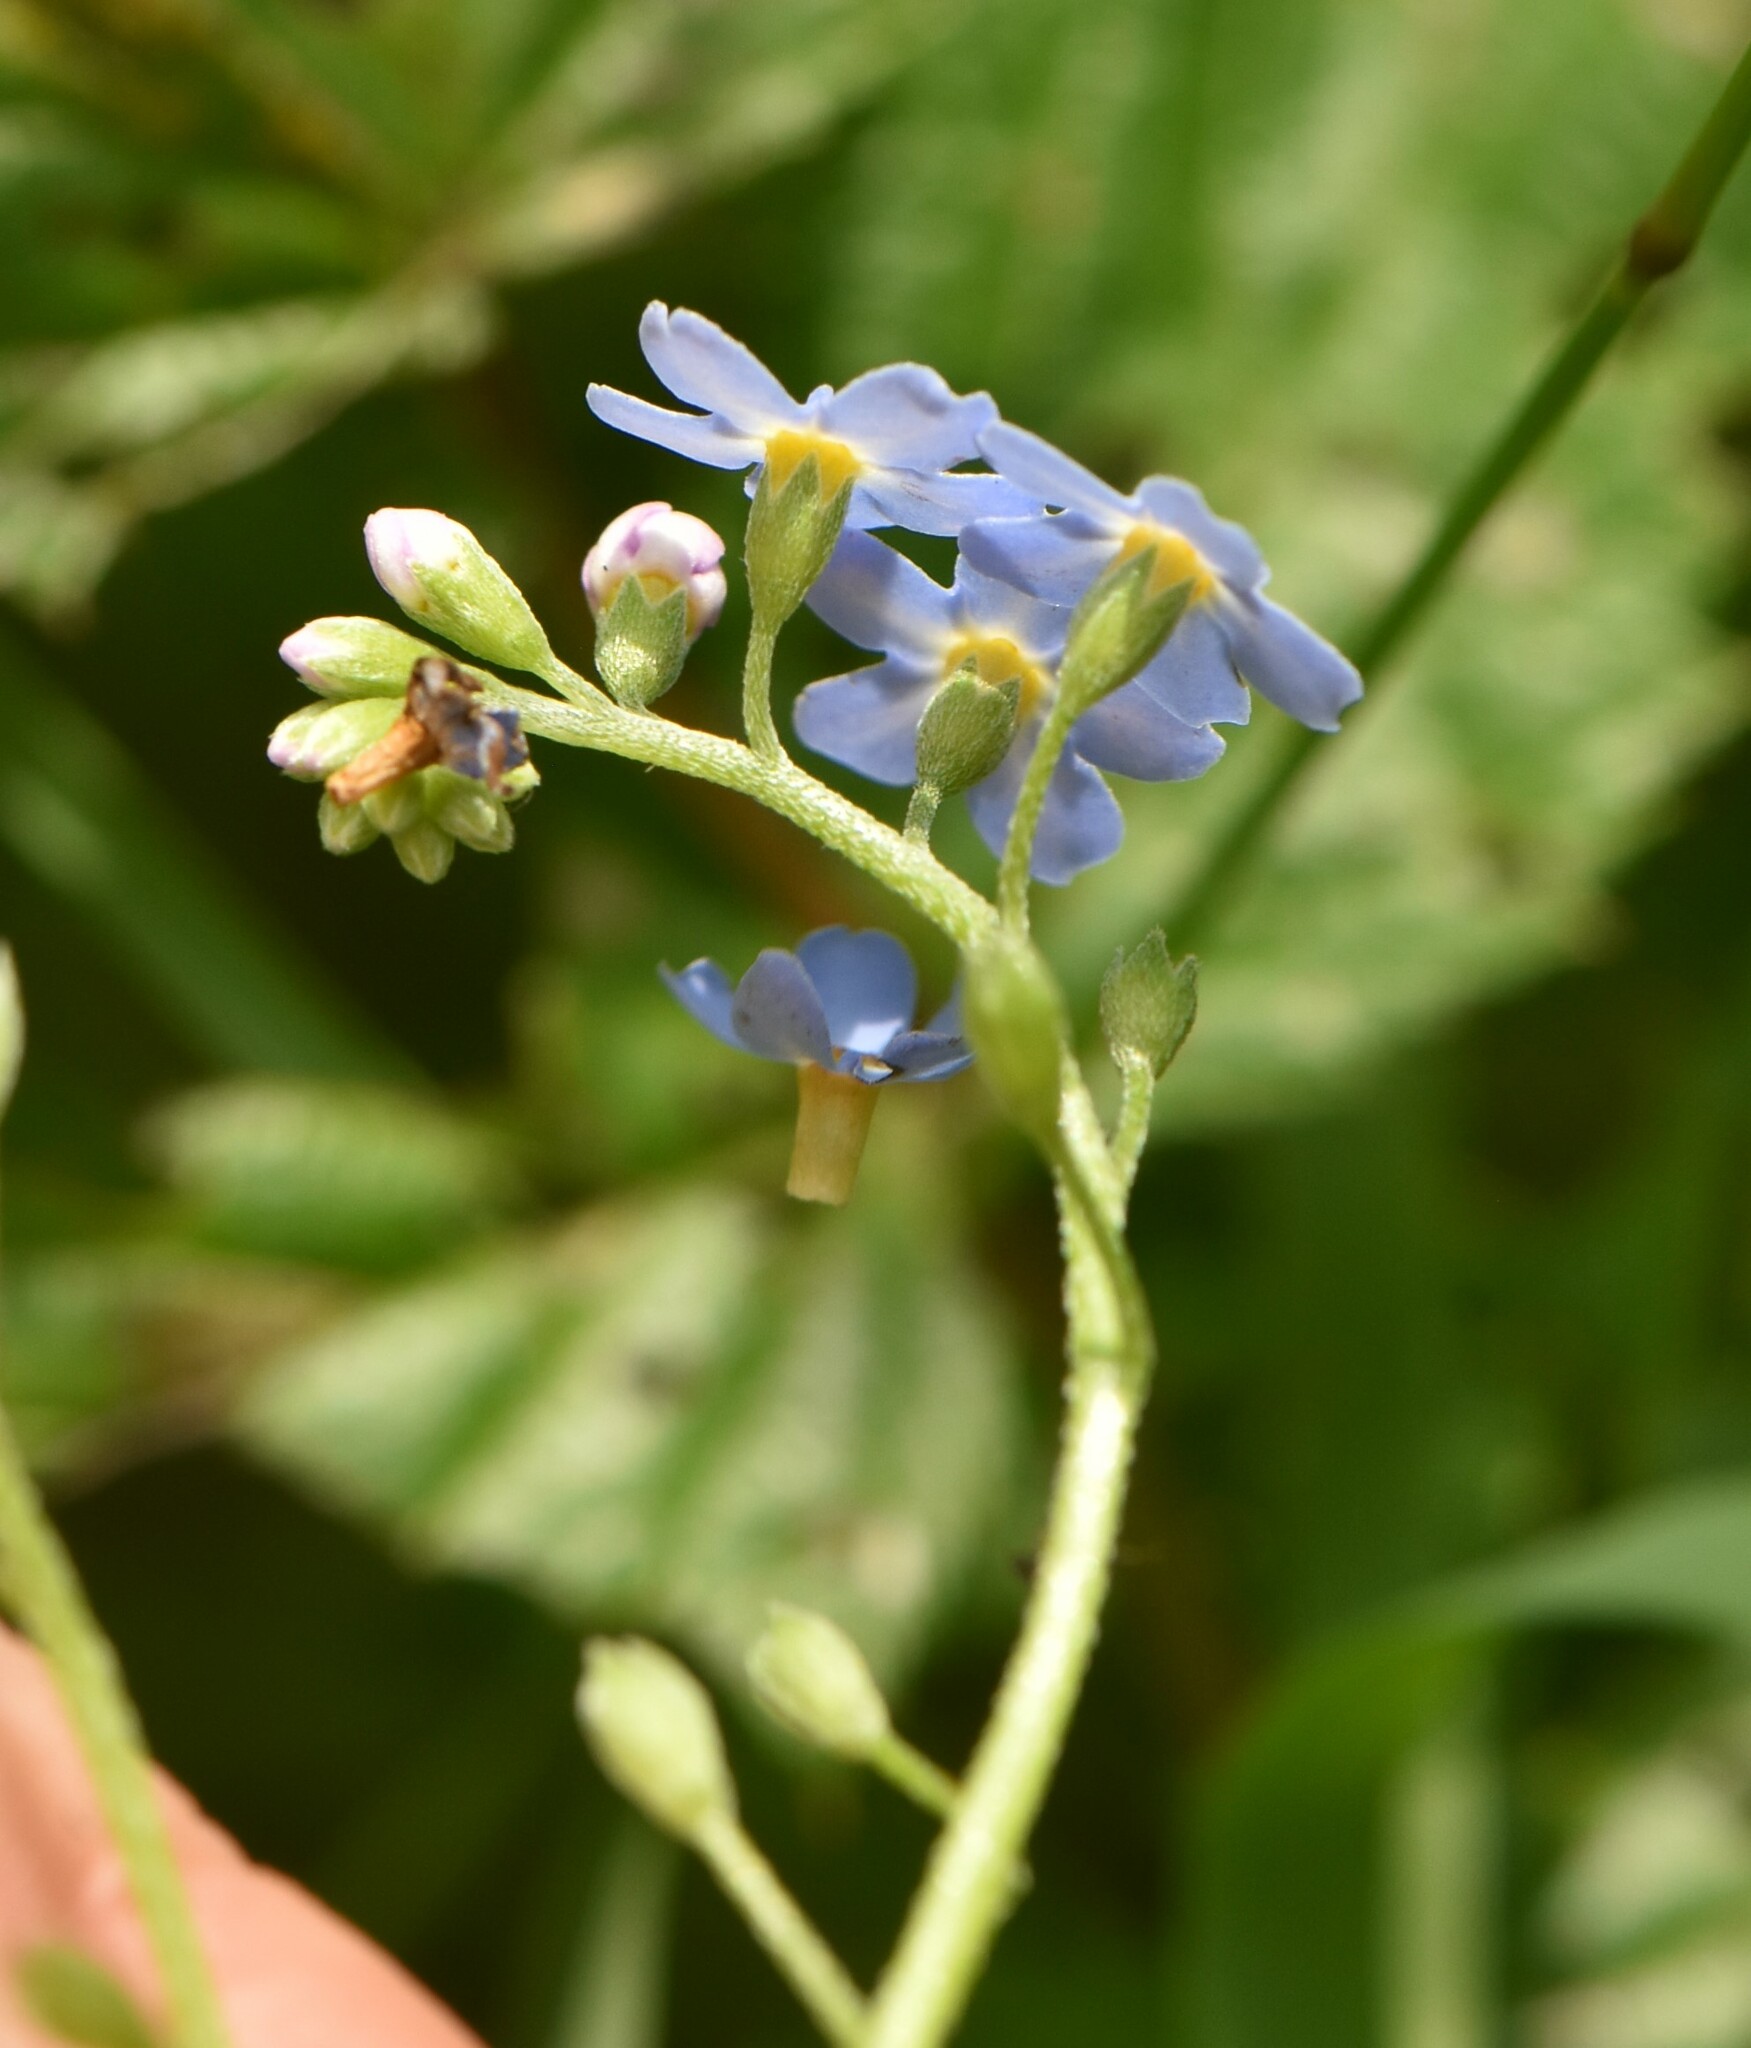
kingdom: Plantae
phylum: Tracheophyta
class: Magnoliopsida
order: Boraginales
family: Boraginaceae
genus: Myosotis
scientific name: Myosotis scorpioides
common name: Water forget-me-not
